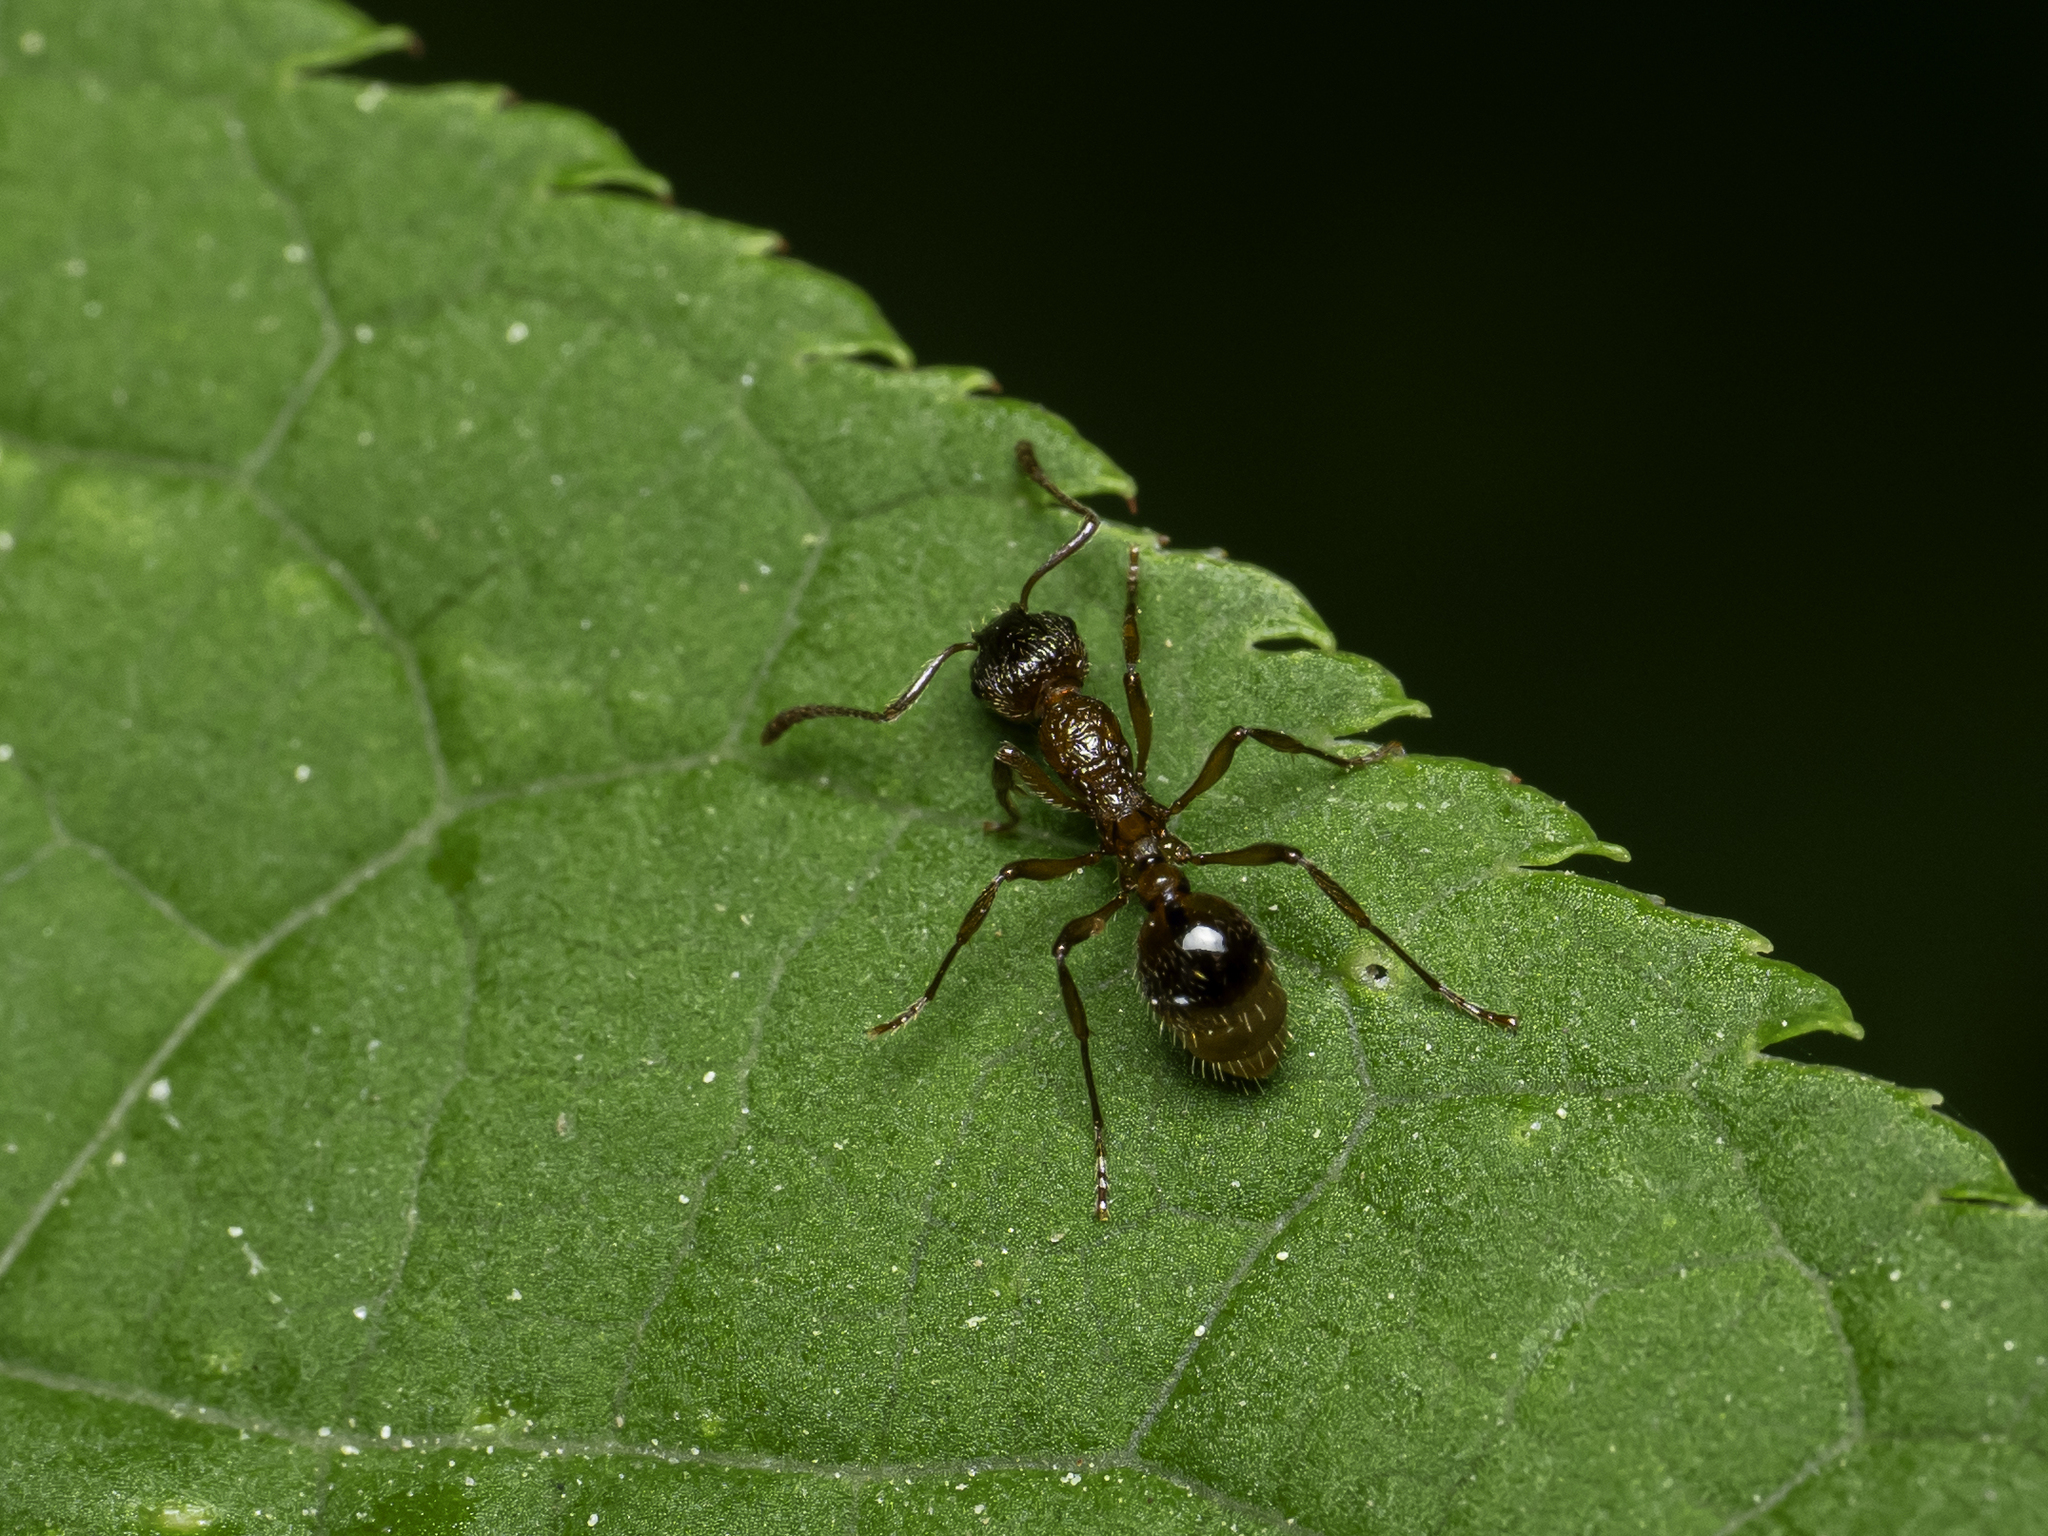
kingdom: Animalia
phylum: Arthropoda
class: Insecta
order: Hymenoptera
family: Formicidae
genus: Myrmica
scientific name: Myrmica rubra
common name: European fire ant
